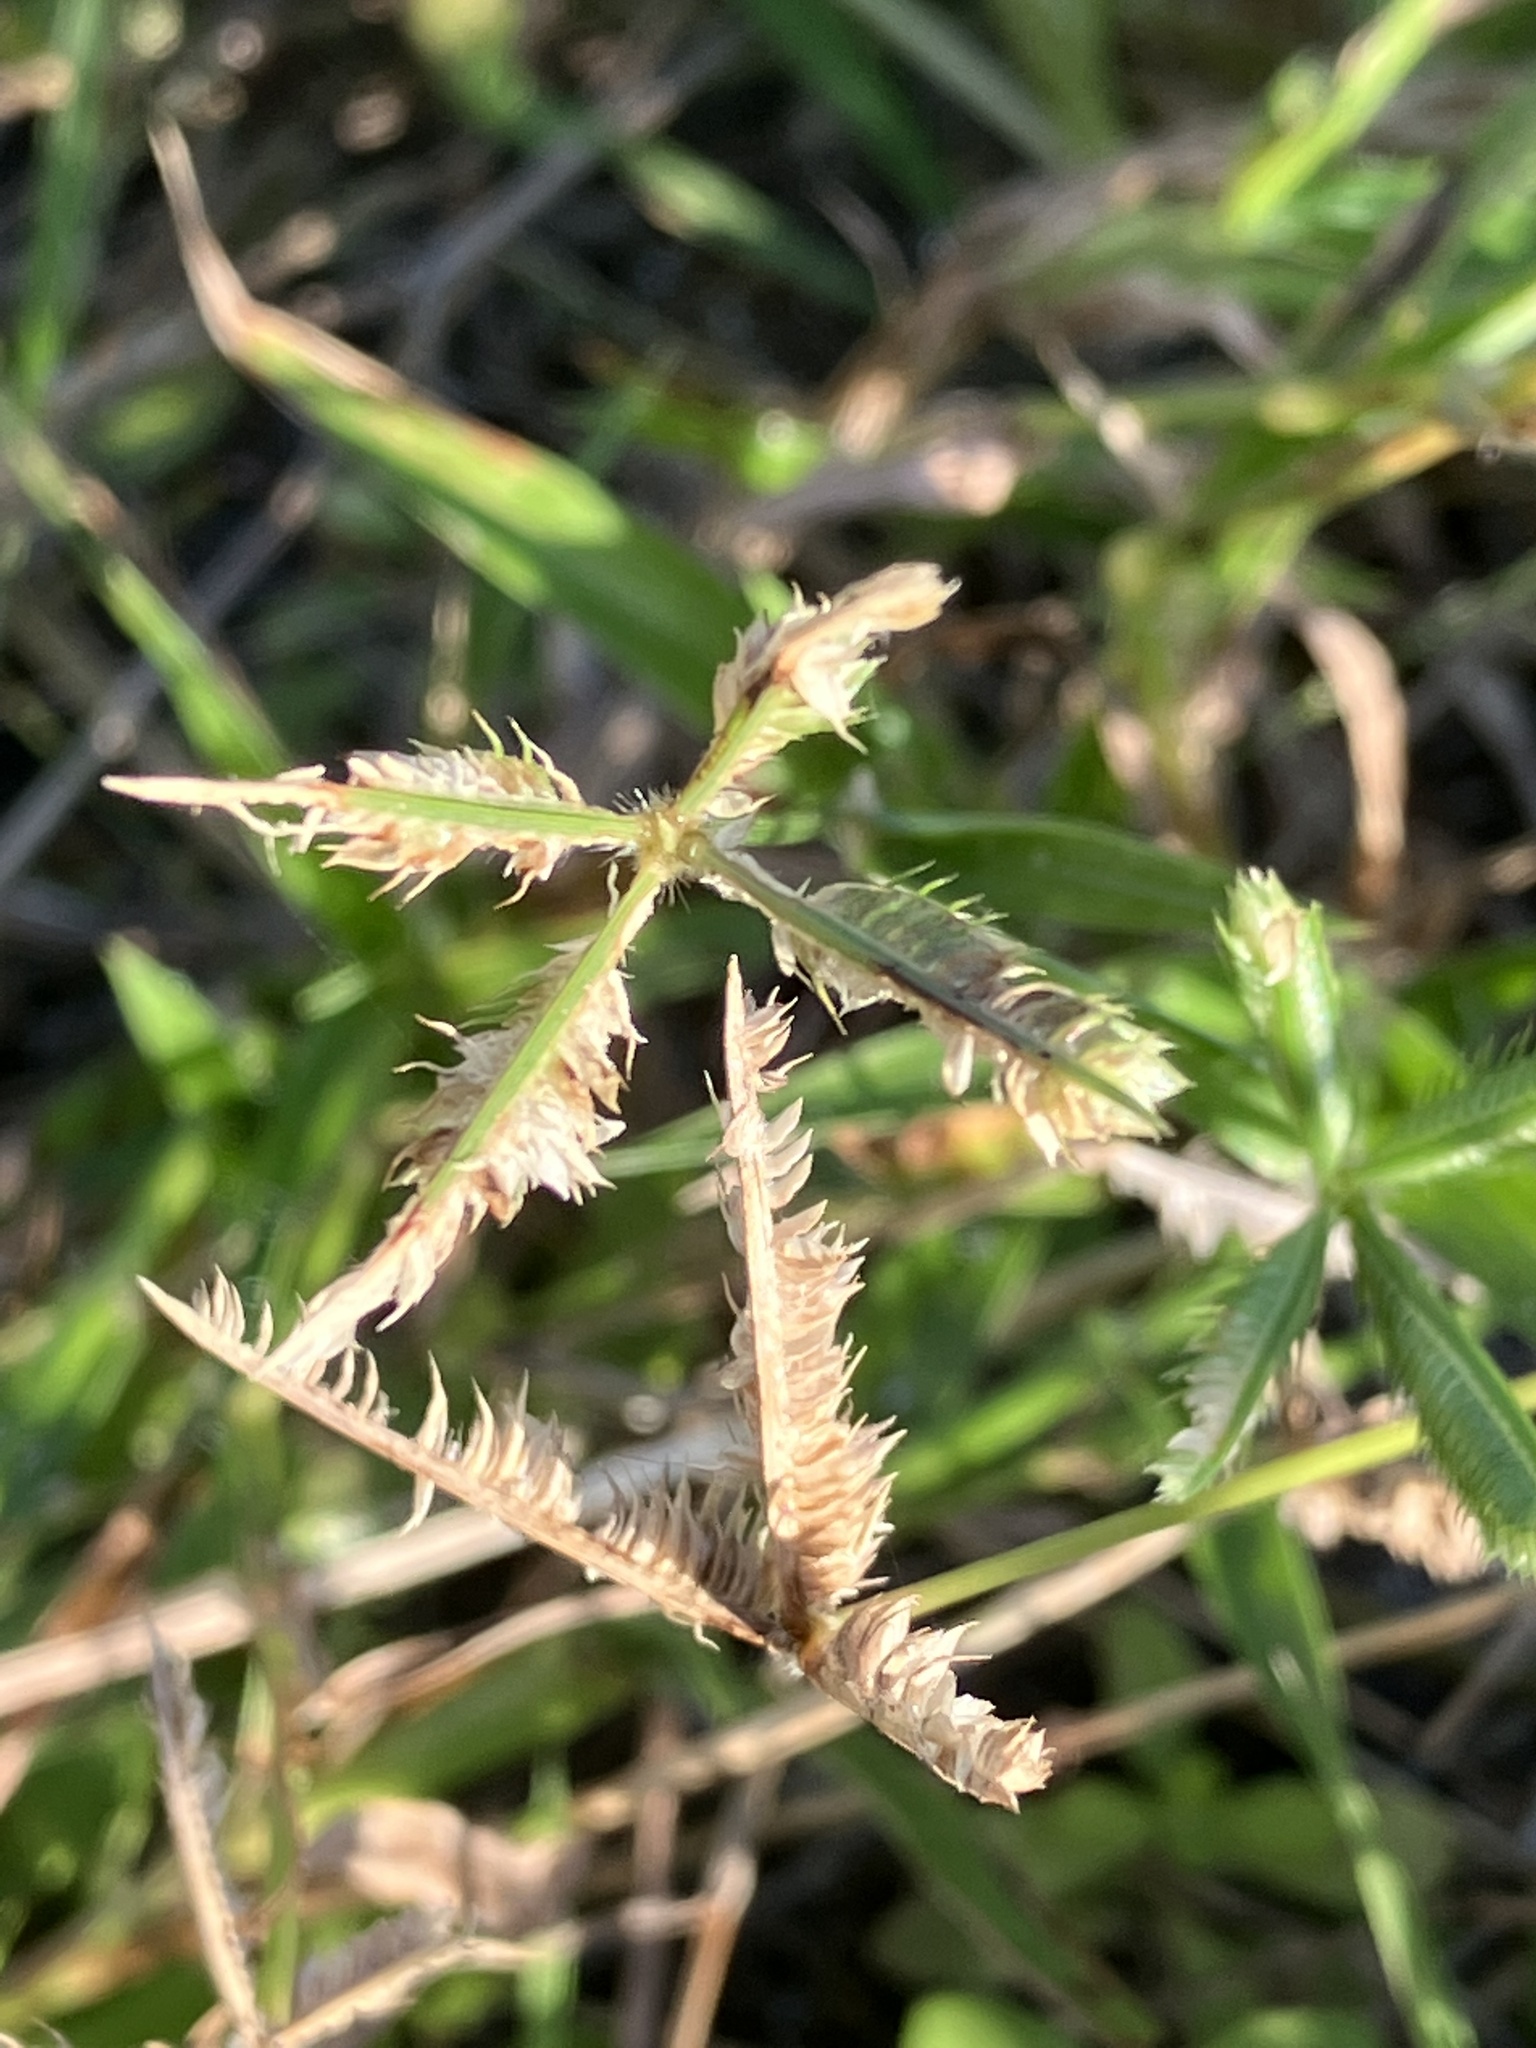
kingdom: Plantae
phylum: Tracheophyta
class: Liliopsida
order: Poales
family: Poaceae
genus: Dactyloctenium
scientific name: Dactyloctenium ctenoides
